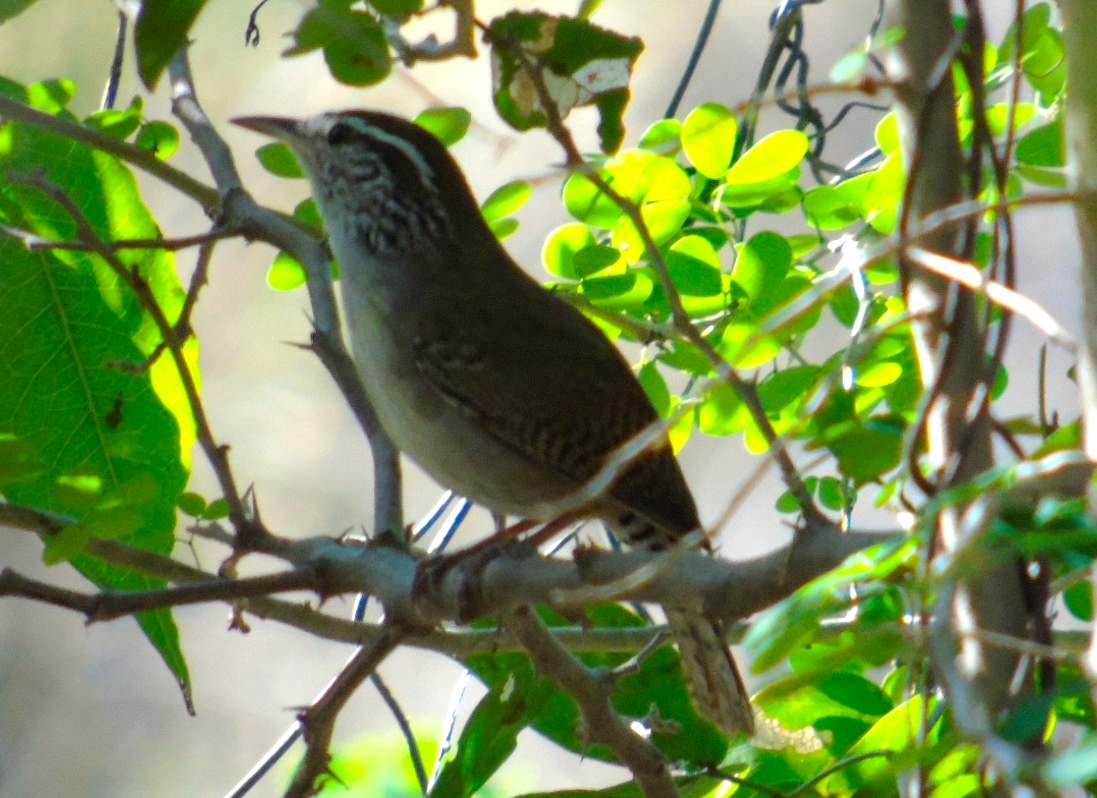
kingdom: Animalia
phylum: Chordata
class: Aves
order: Passeriformes
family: Troglodytidae
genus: Thryophilus
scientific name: Thryophilus sinaloa
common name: Sinaloa wren
